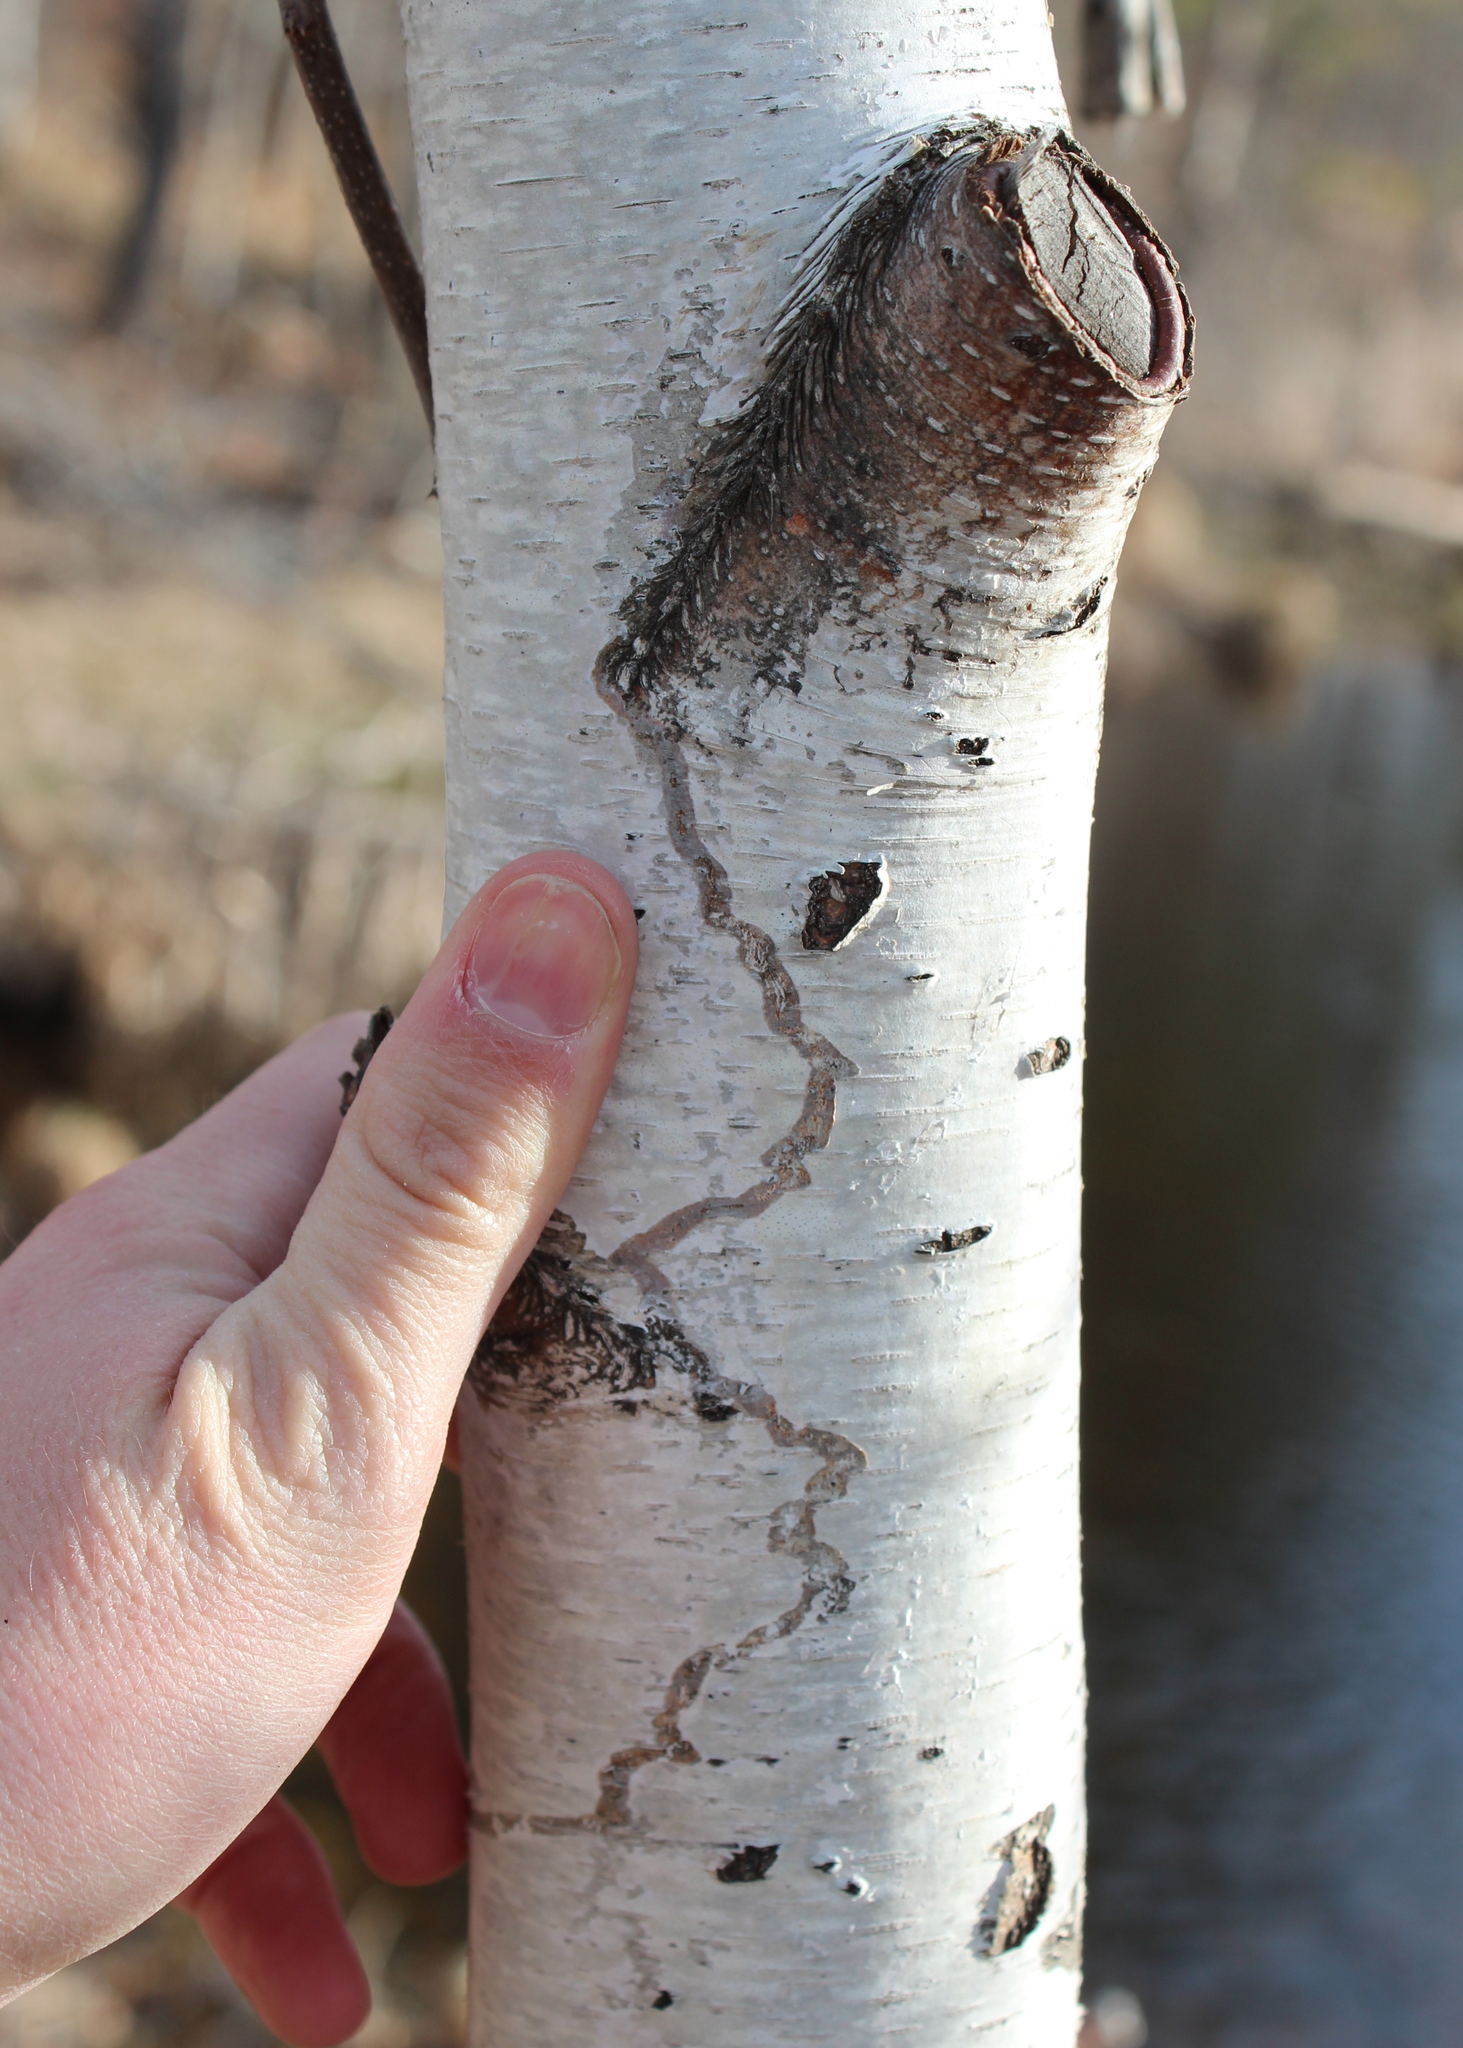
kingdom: Plantae
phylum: Tracheophyta
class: Magnoliopsida
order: Fagales
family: Betulaceae
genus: Betula
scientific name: Betula populifolia
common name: Fire birch
